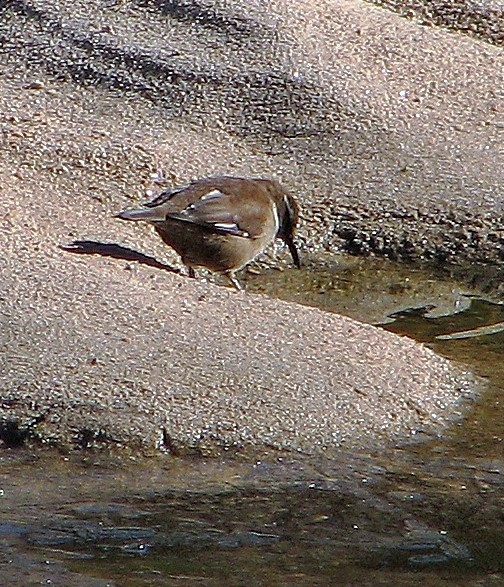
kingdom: Animalia
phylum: Chordata
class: Aves
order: Passeriformes
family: Furnariidae
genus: Cinclodes
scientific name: Cinclodes atacamensis
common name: White-winged cinclodes
